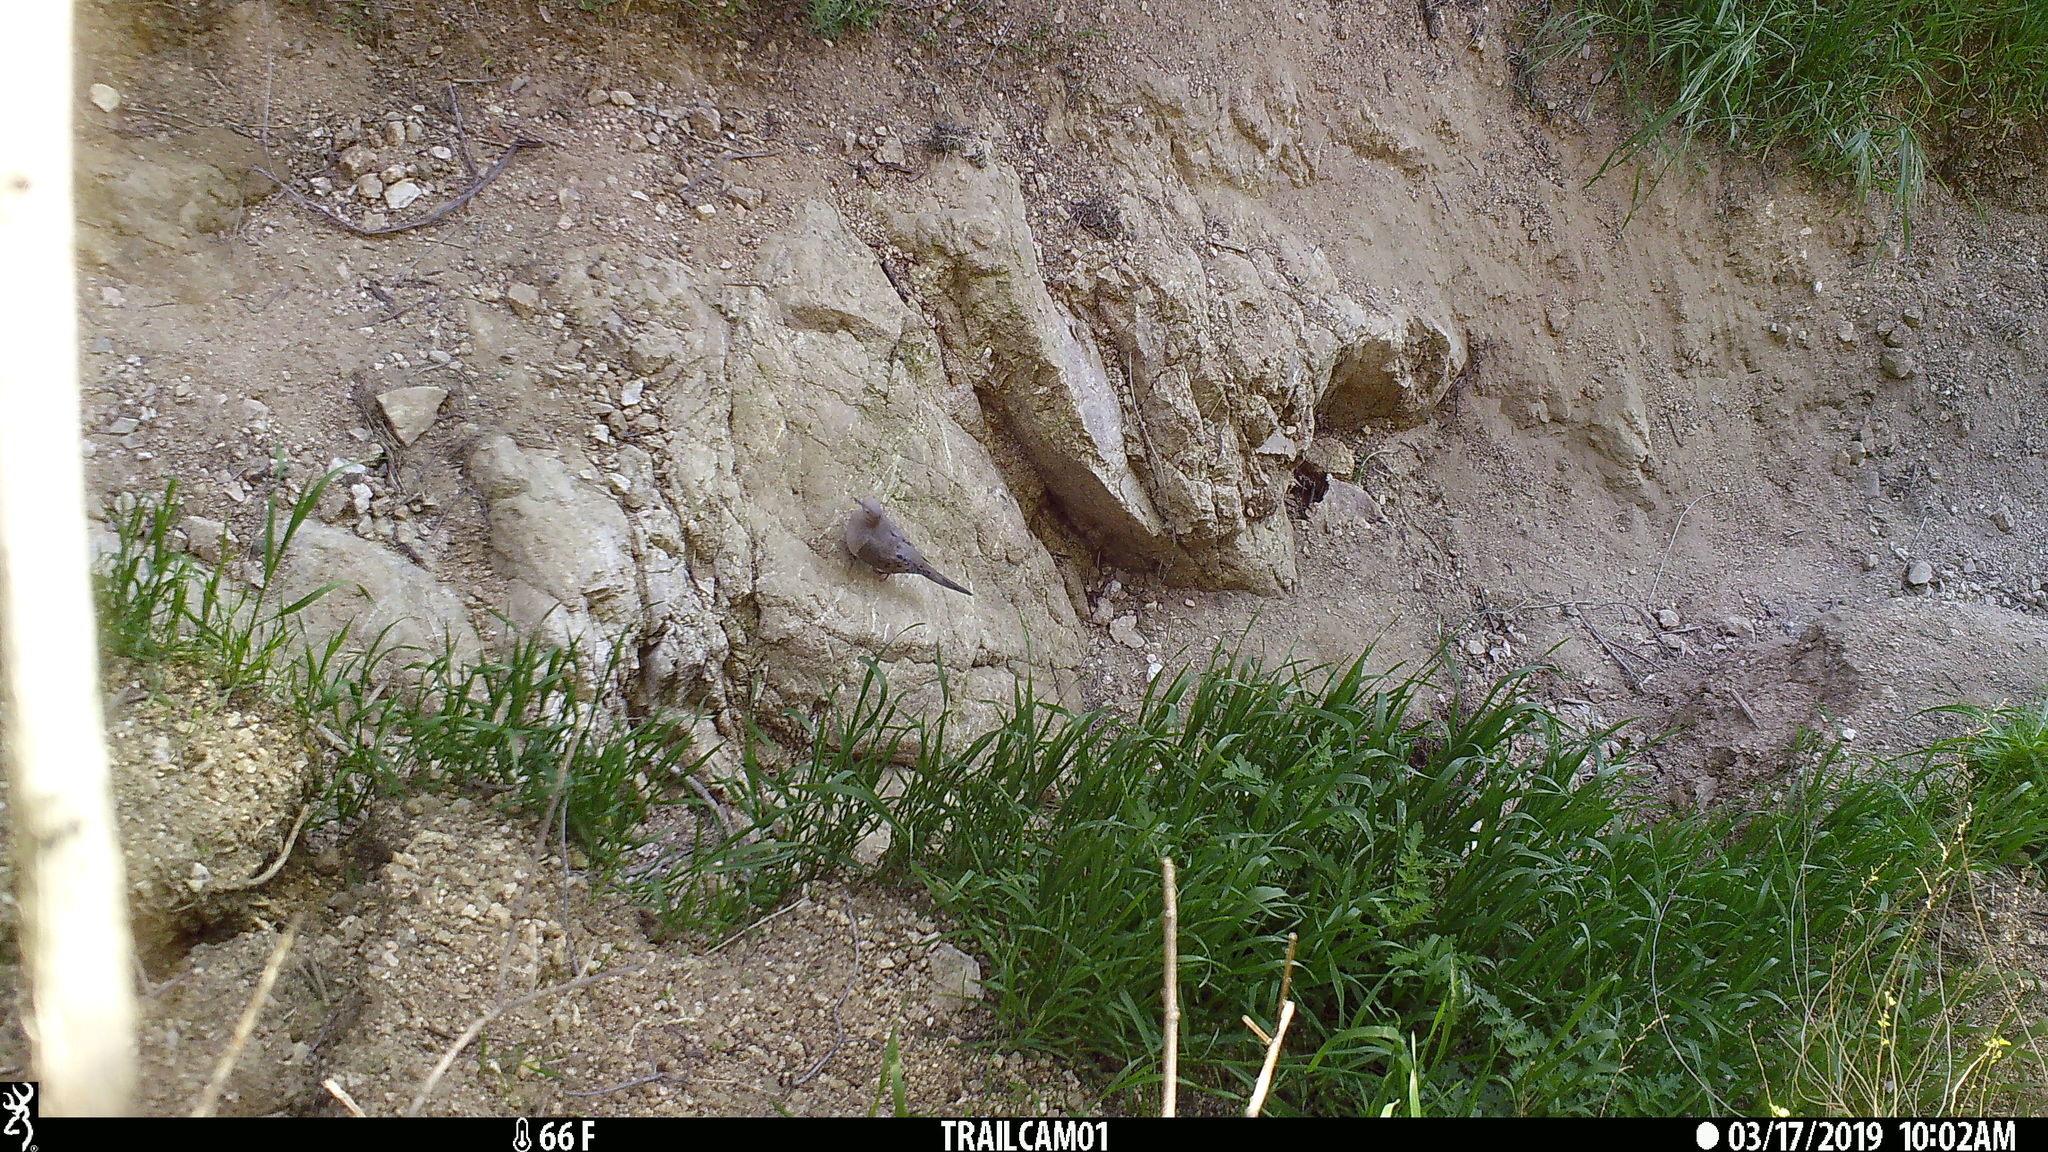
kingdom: Animalia
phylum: Chordata
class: Aves
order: Columbiformes
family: Columbidae
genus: Zenaida
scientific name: Zenaida macroura
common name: Mourning dove
